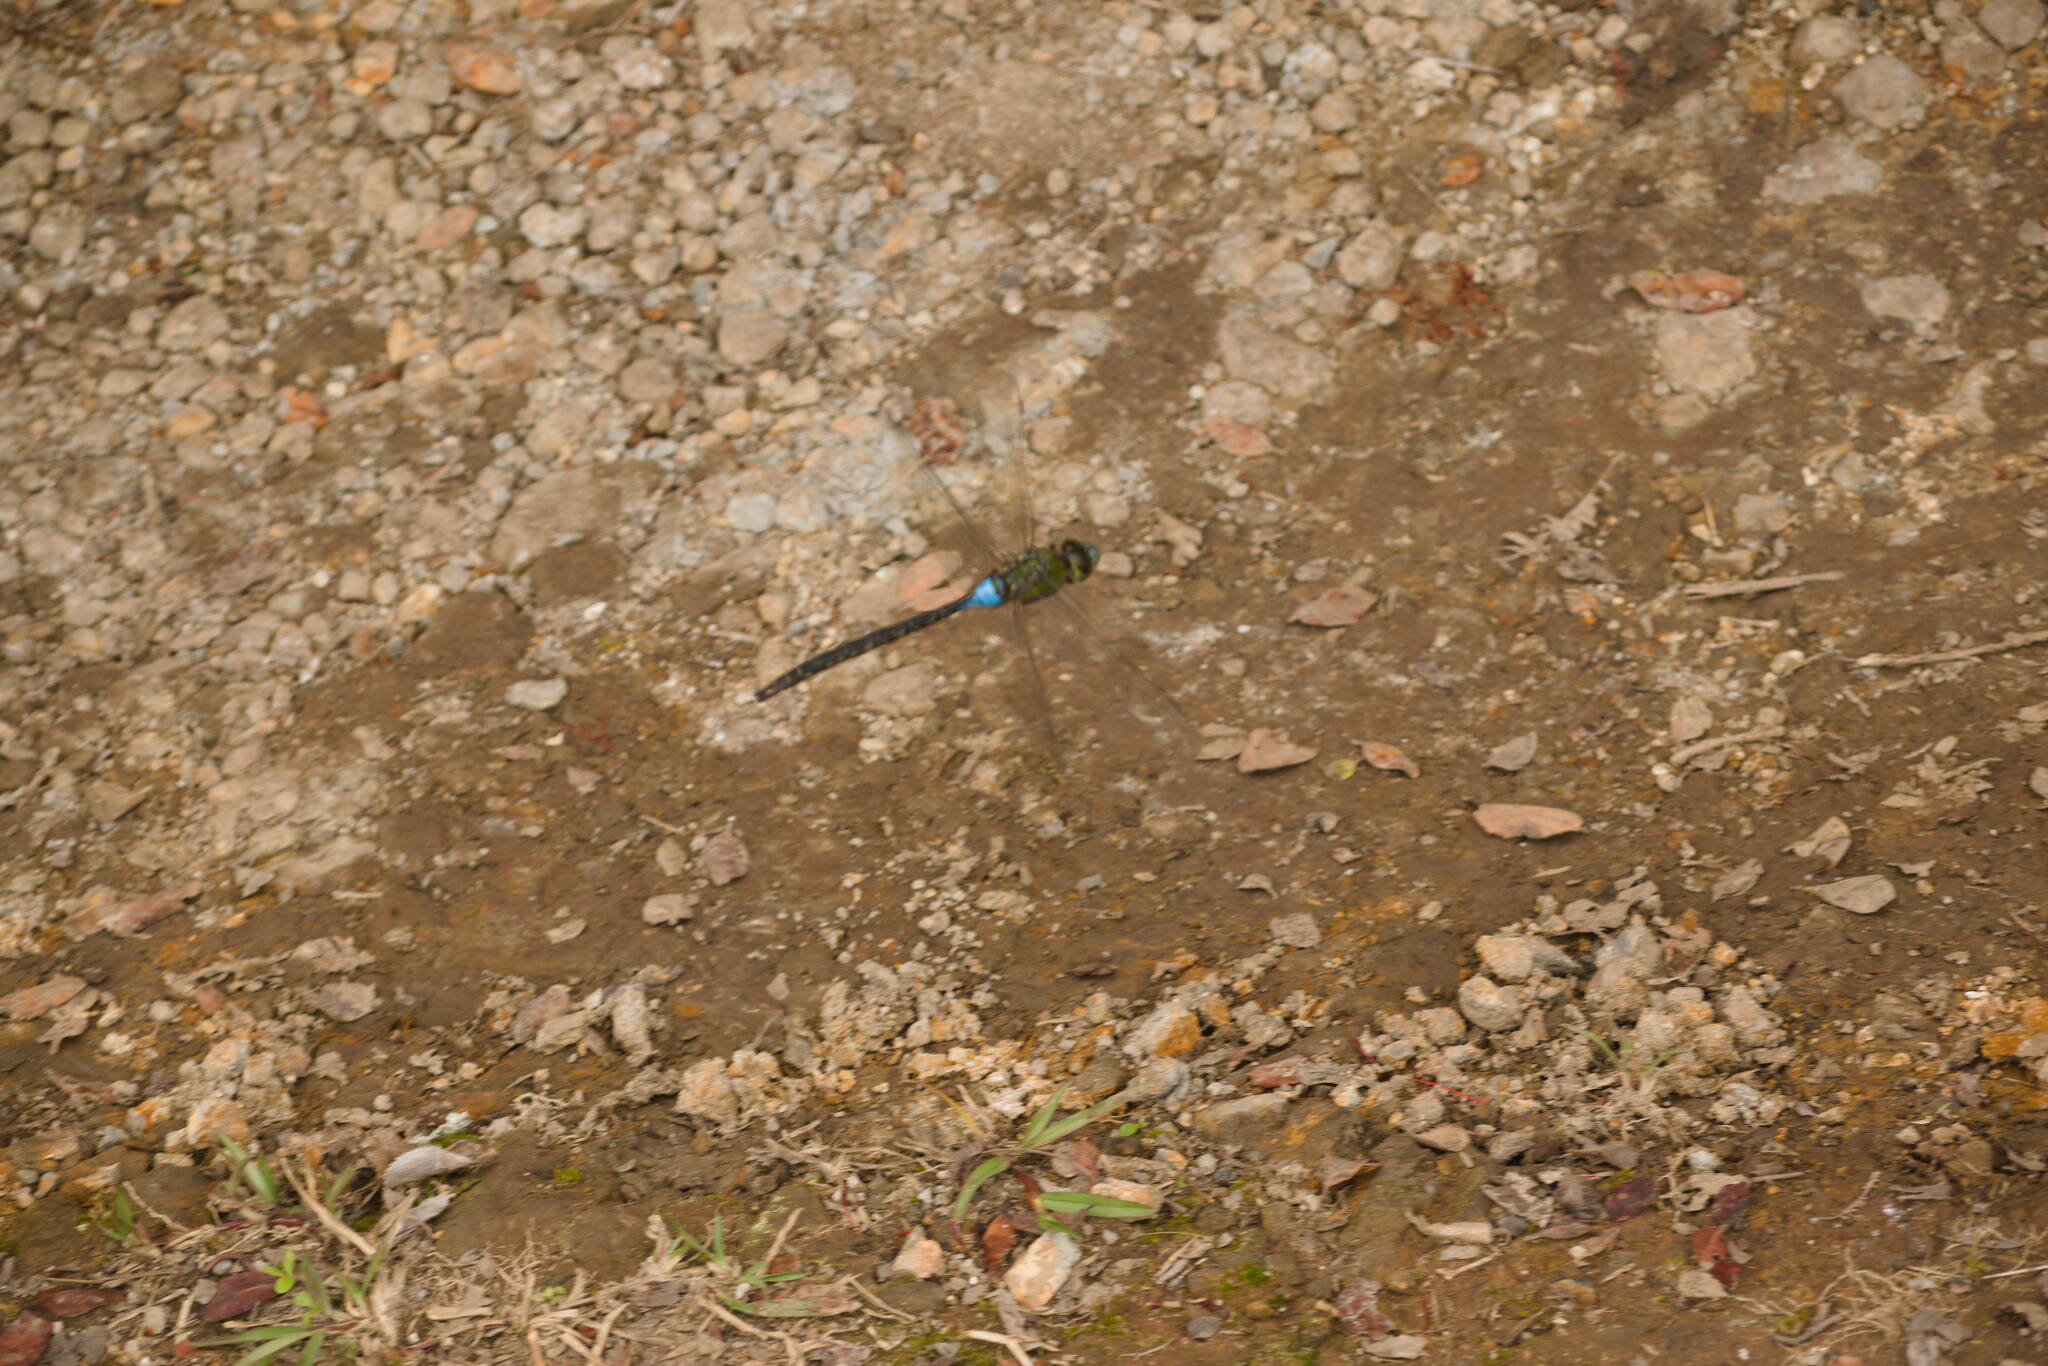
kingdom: Animalia
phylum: Arthropoda
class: Insecta
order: Odonata
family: Aeshnidae
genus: Anax
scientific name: Anax strenuus
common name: Giant hawaiian darner
